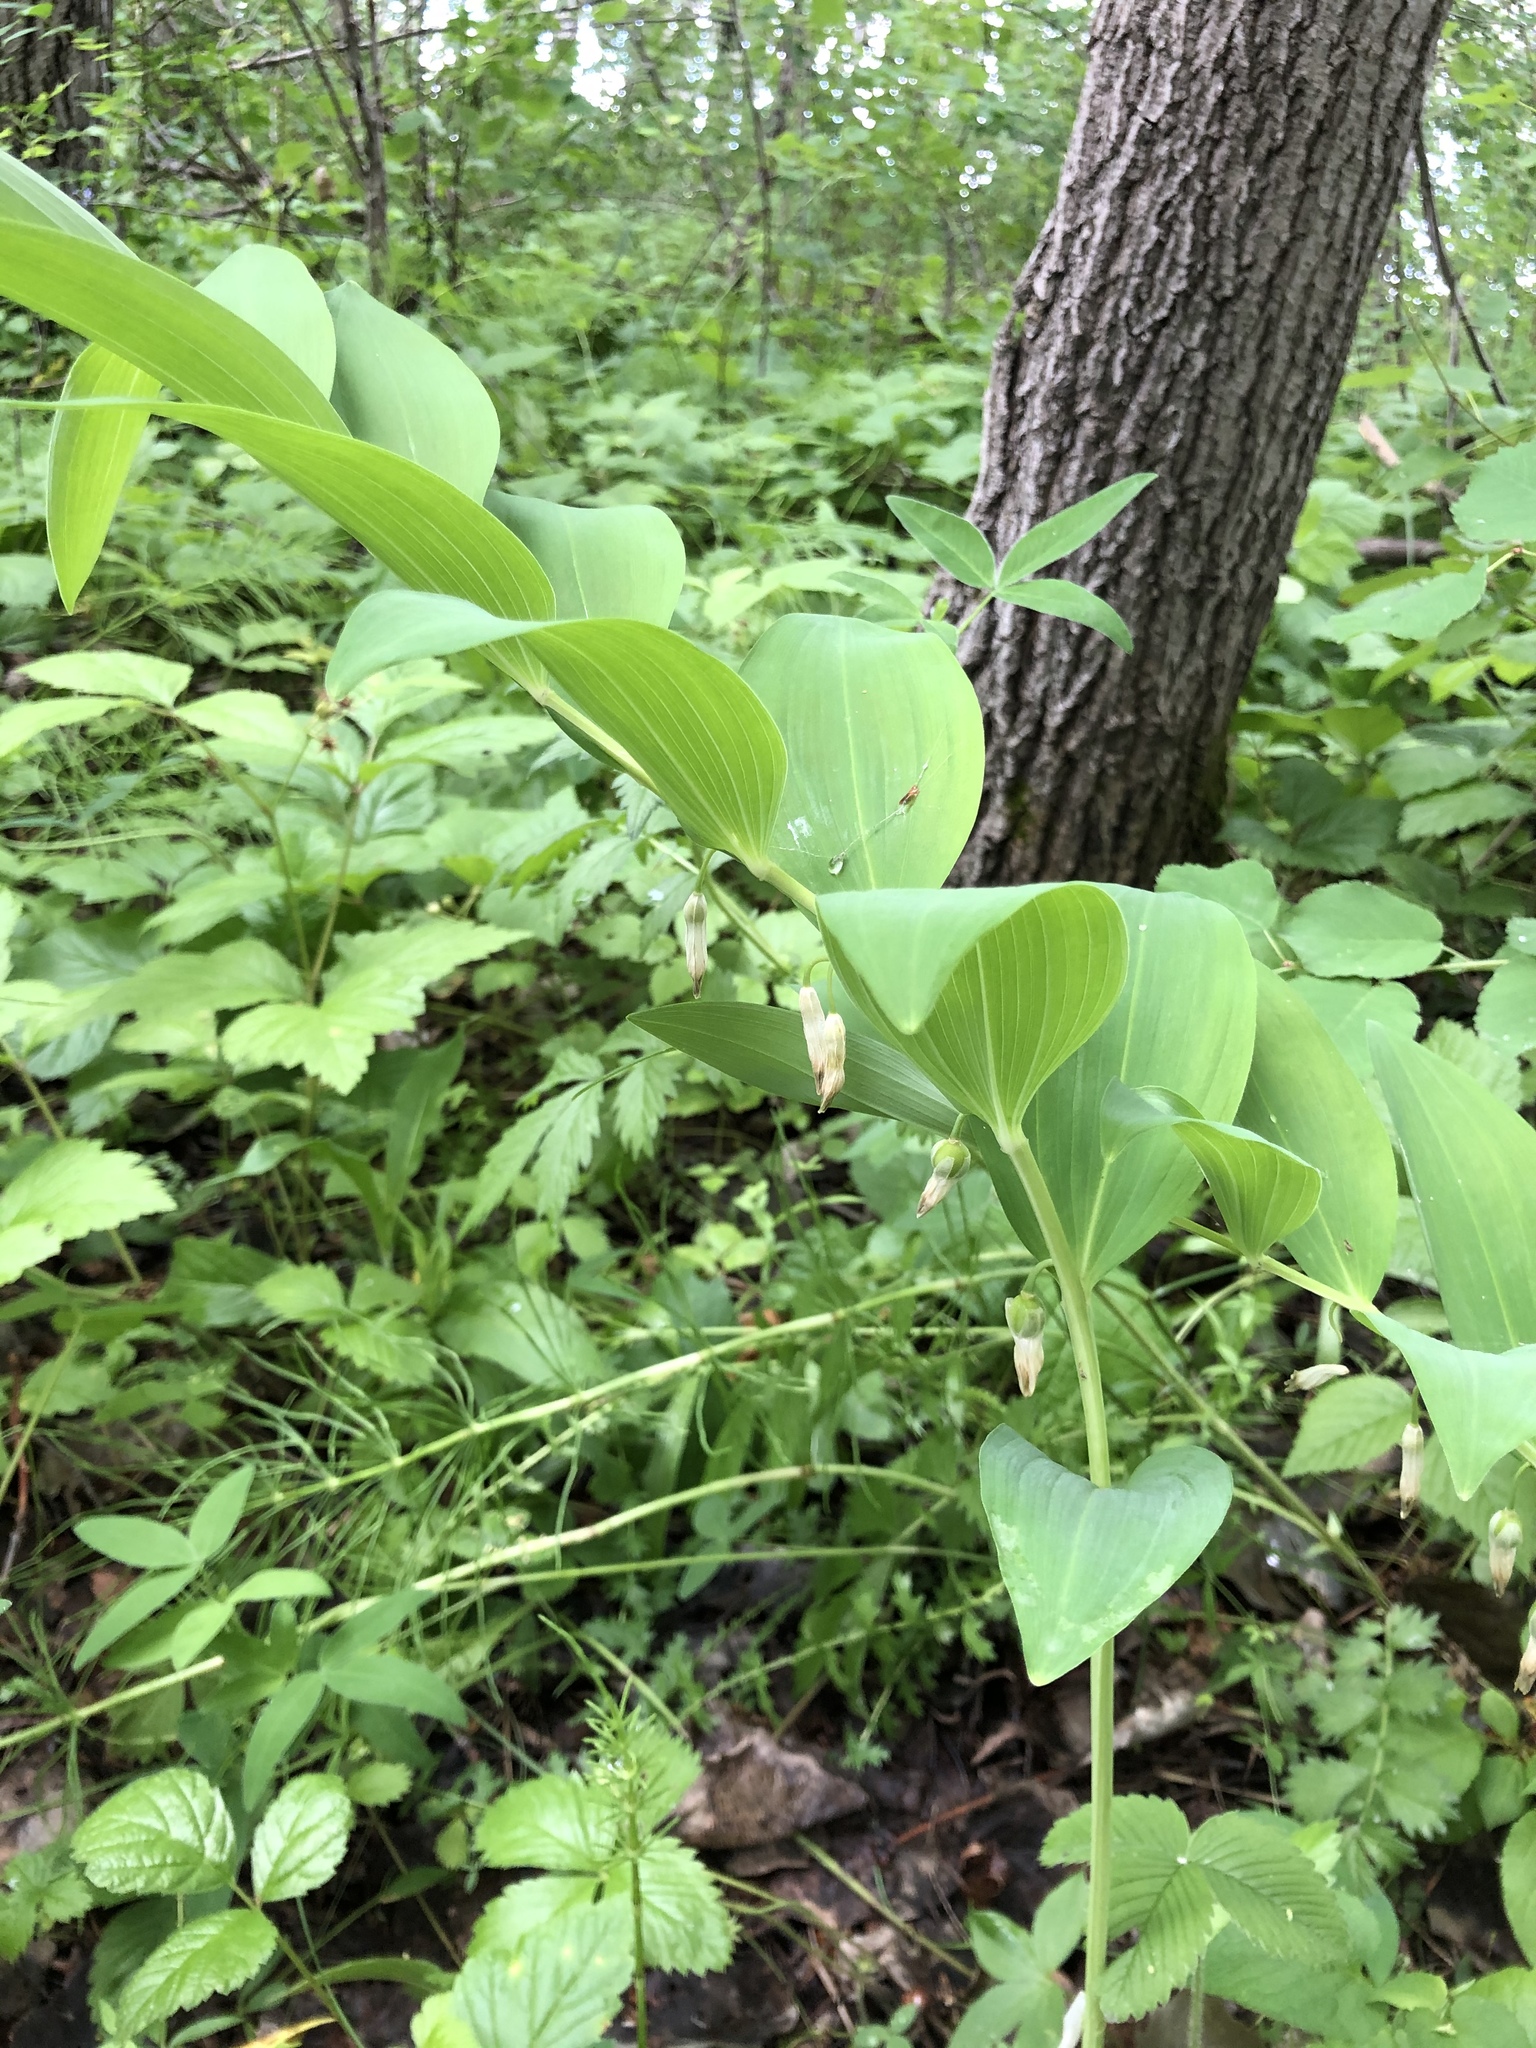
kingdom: Plantae
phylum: Tracheophyta
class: Liliopsida
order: Asparagales
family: Asparagaceae
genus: Polygonatum
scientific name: Polygonatum odoratum
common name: Angular solomon's-seal
